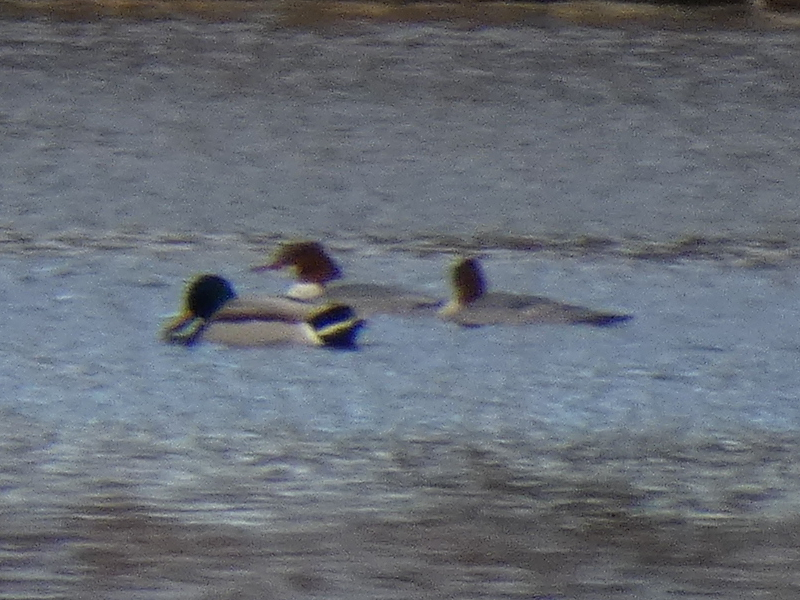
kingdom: Animalia
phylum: Chordata
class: Aves
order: Anseriformes
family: Anatidae
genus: Mergus
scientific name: Mergus merganser
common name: Common merganser
